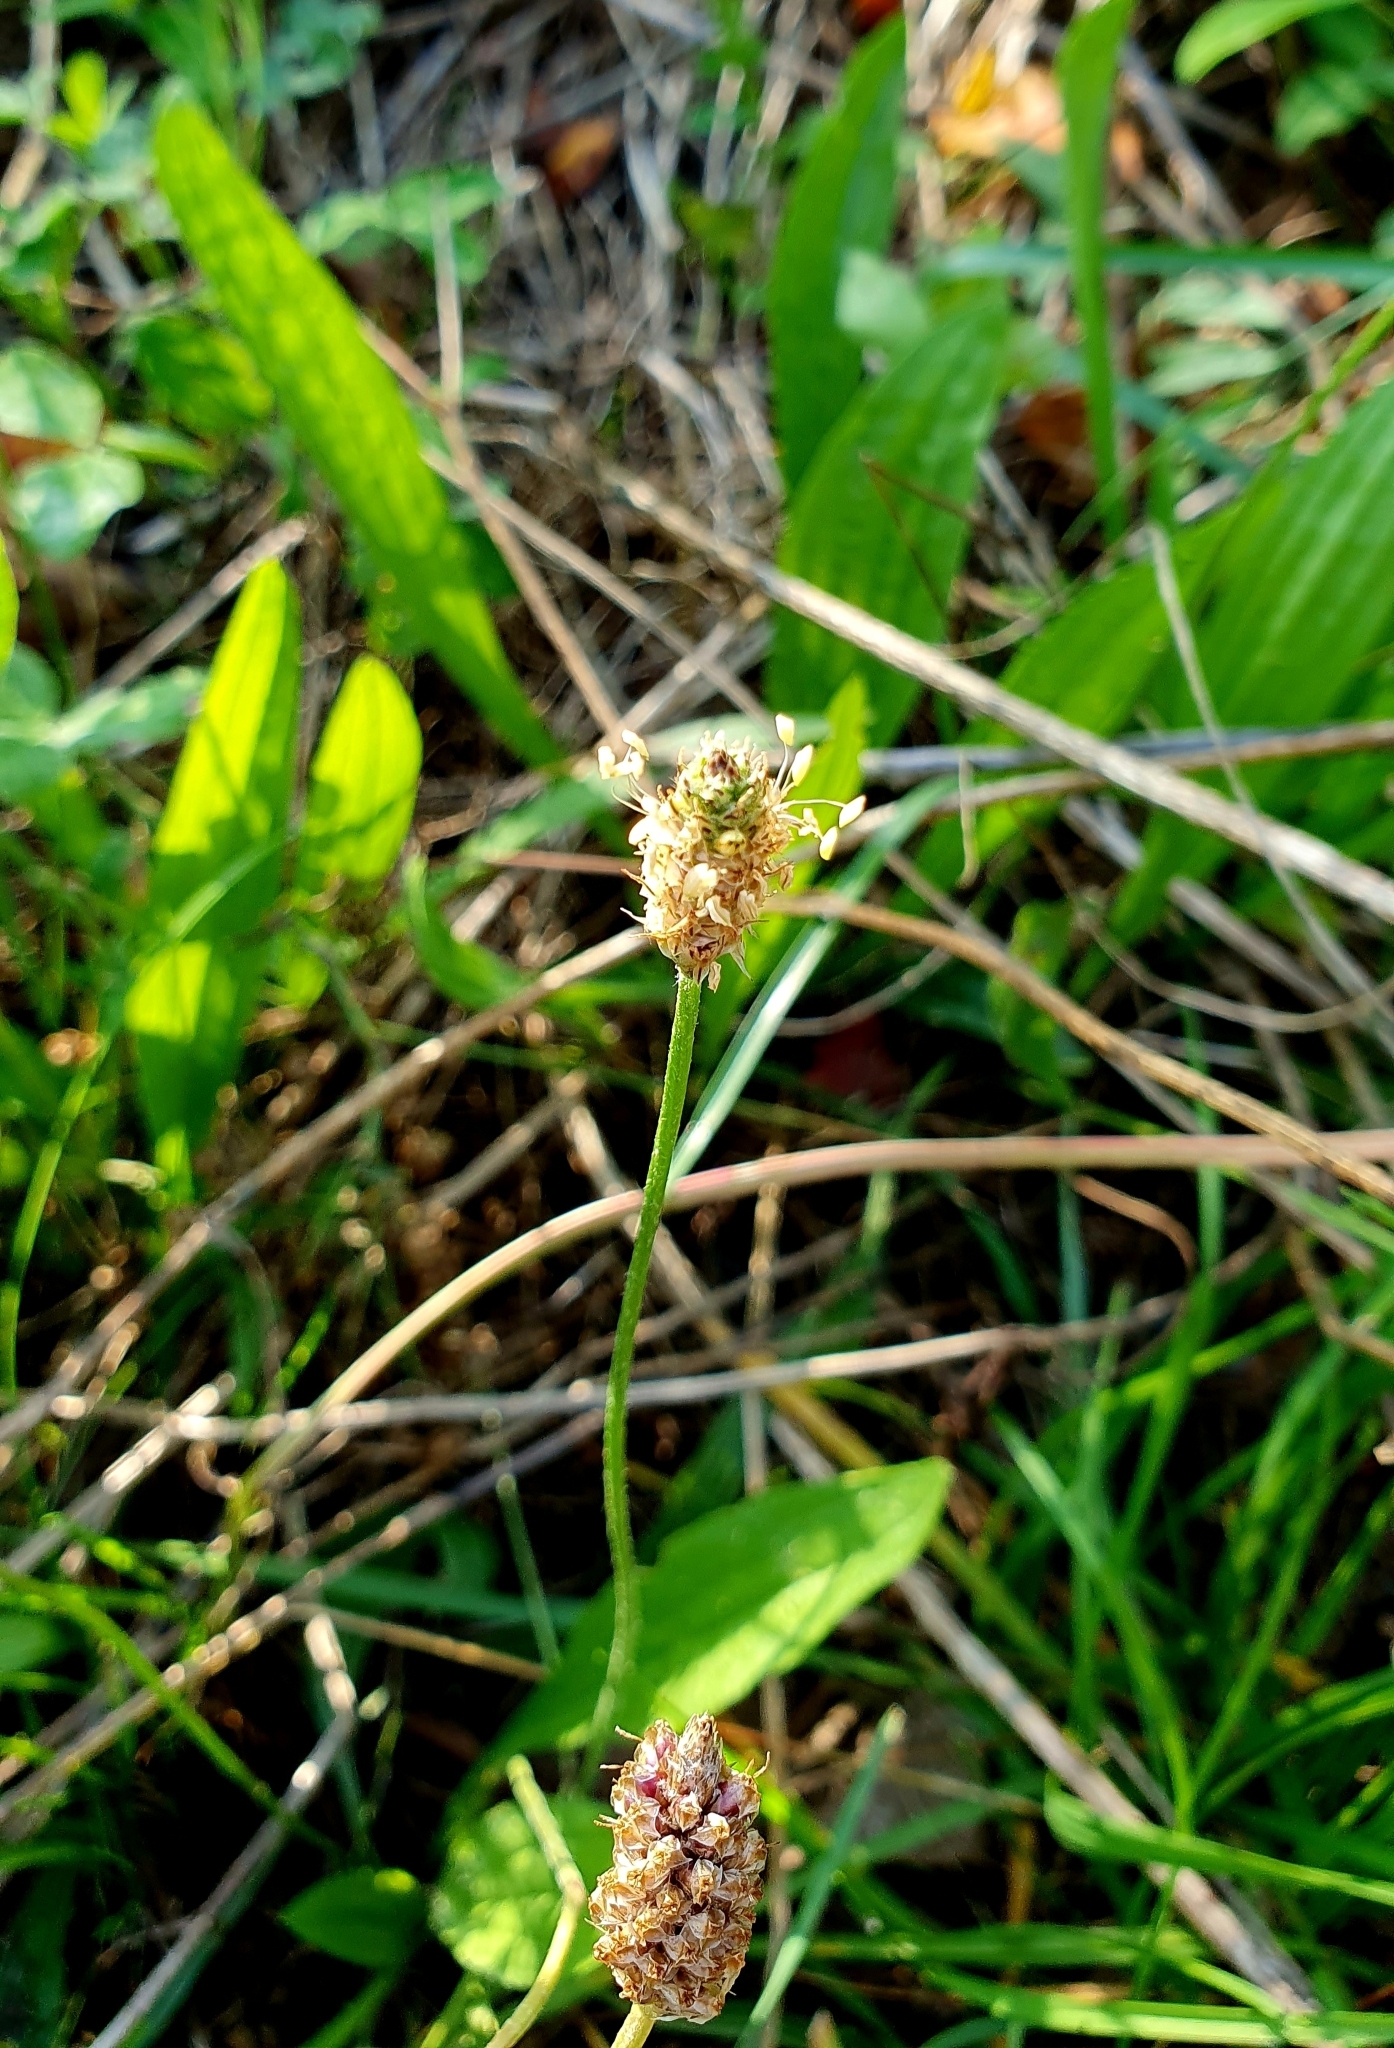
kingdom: Plantae
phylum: Tracheophyta
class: Magnoliopsida
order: Lamiales
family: Plantaginaceae
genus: Plantago
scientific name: Plantago lanceolata
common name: Ribwort plantain
